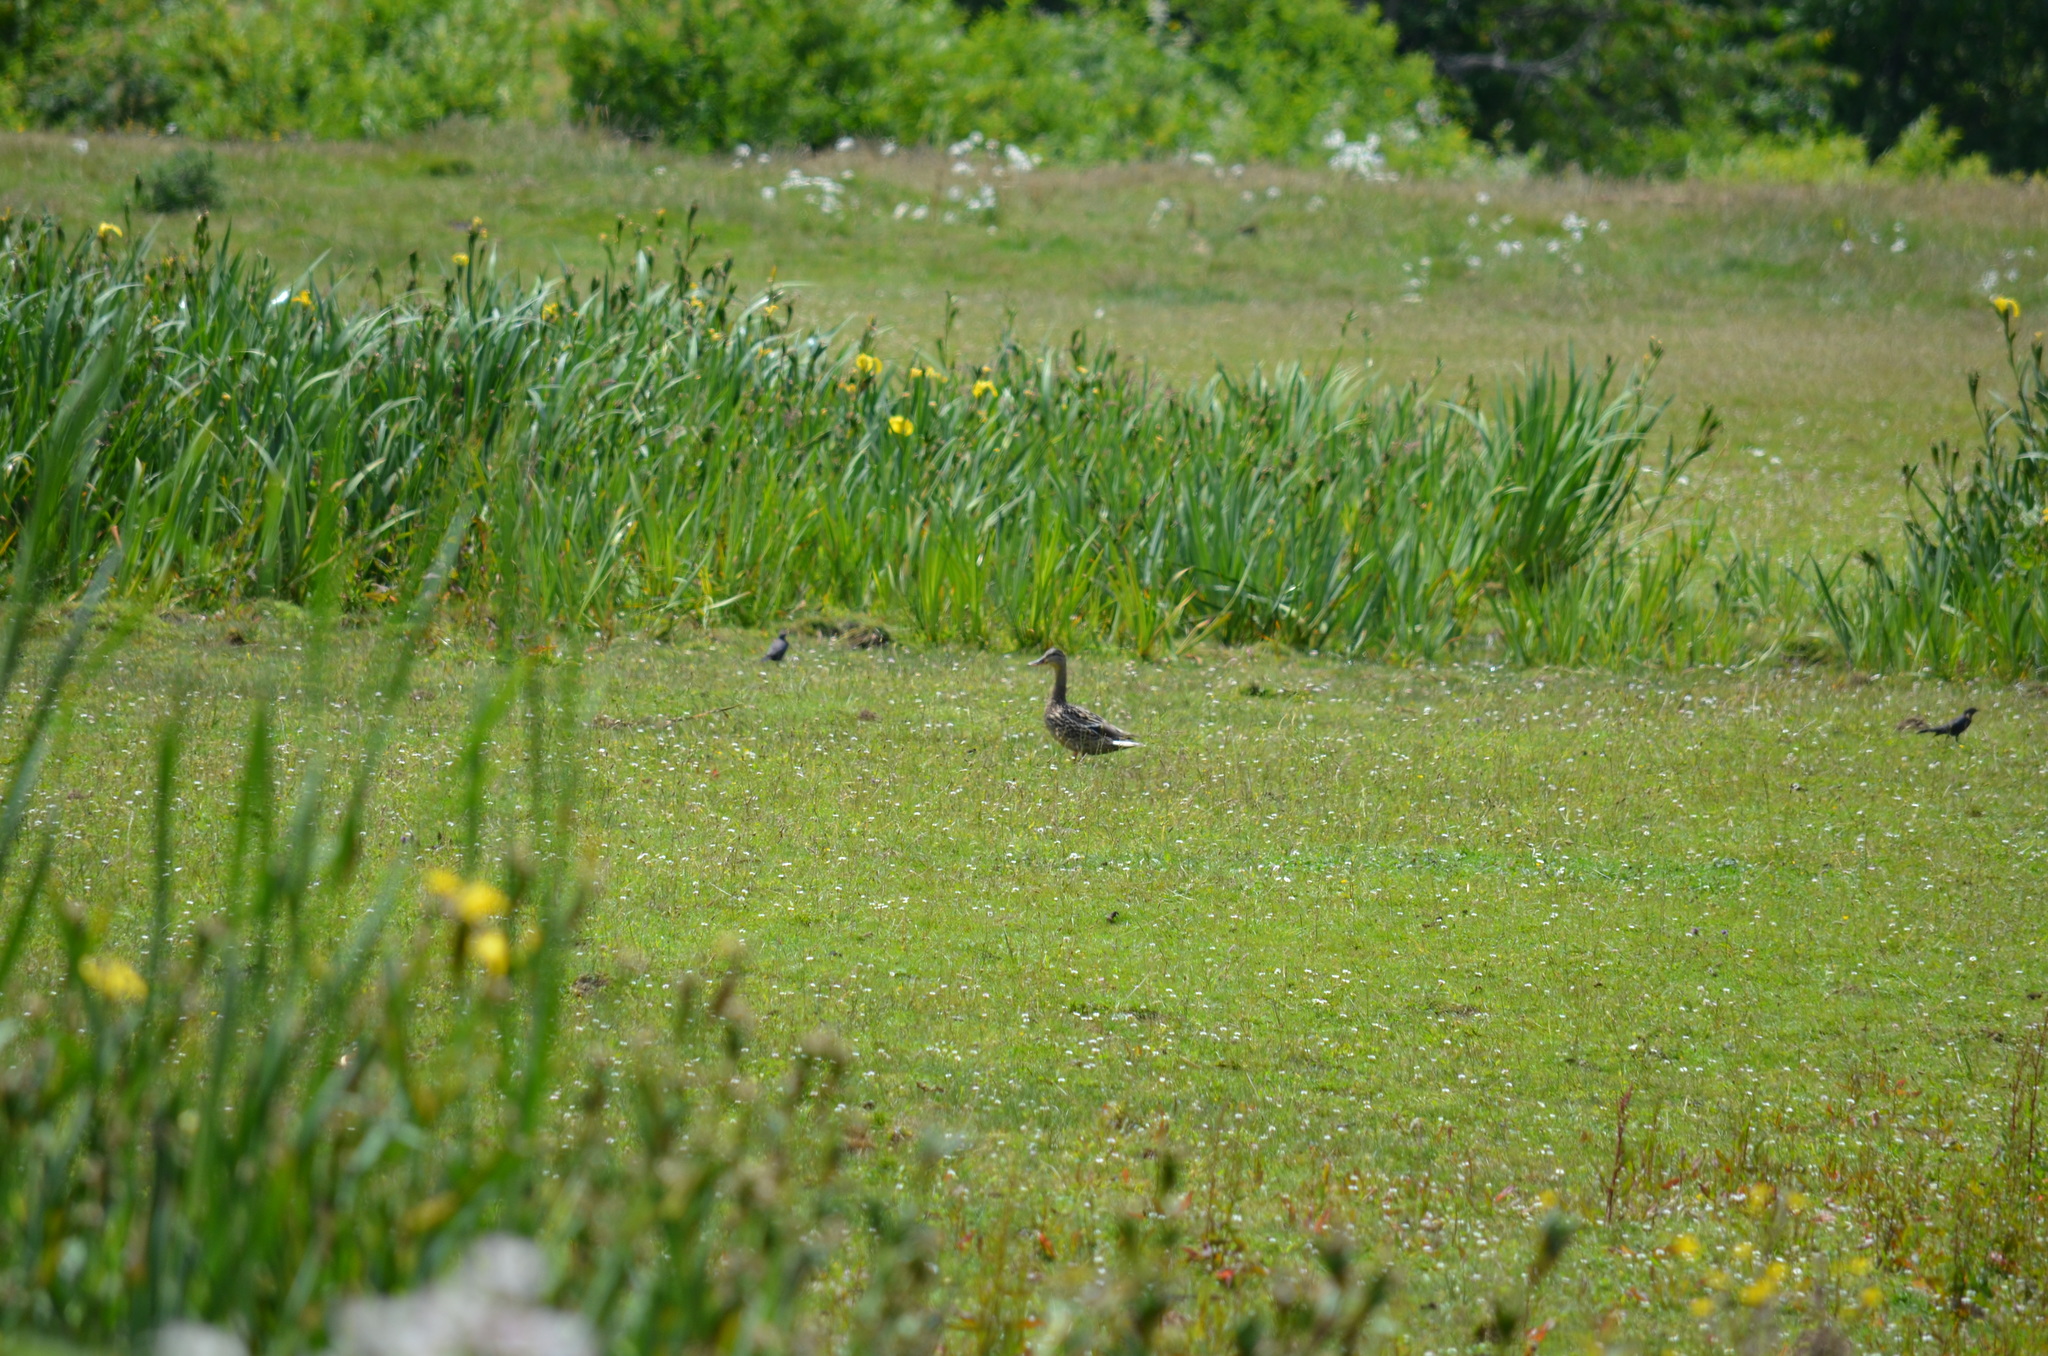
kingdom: Animalia
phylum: Chordata
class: Aves
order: Anseriformes
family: Anatidae
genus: Anas
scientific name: Anas platyrhynchos
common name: Mallard
